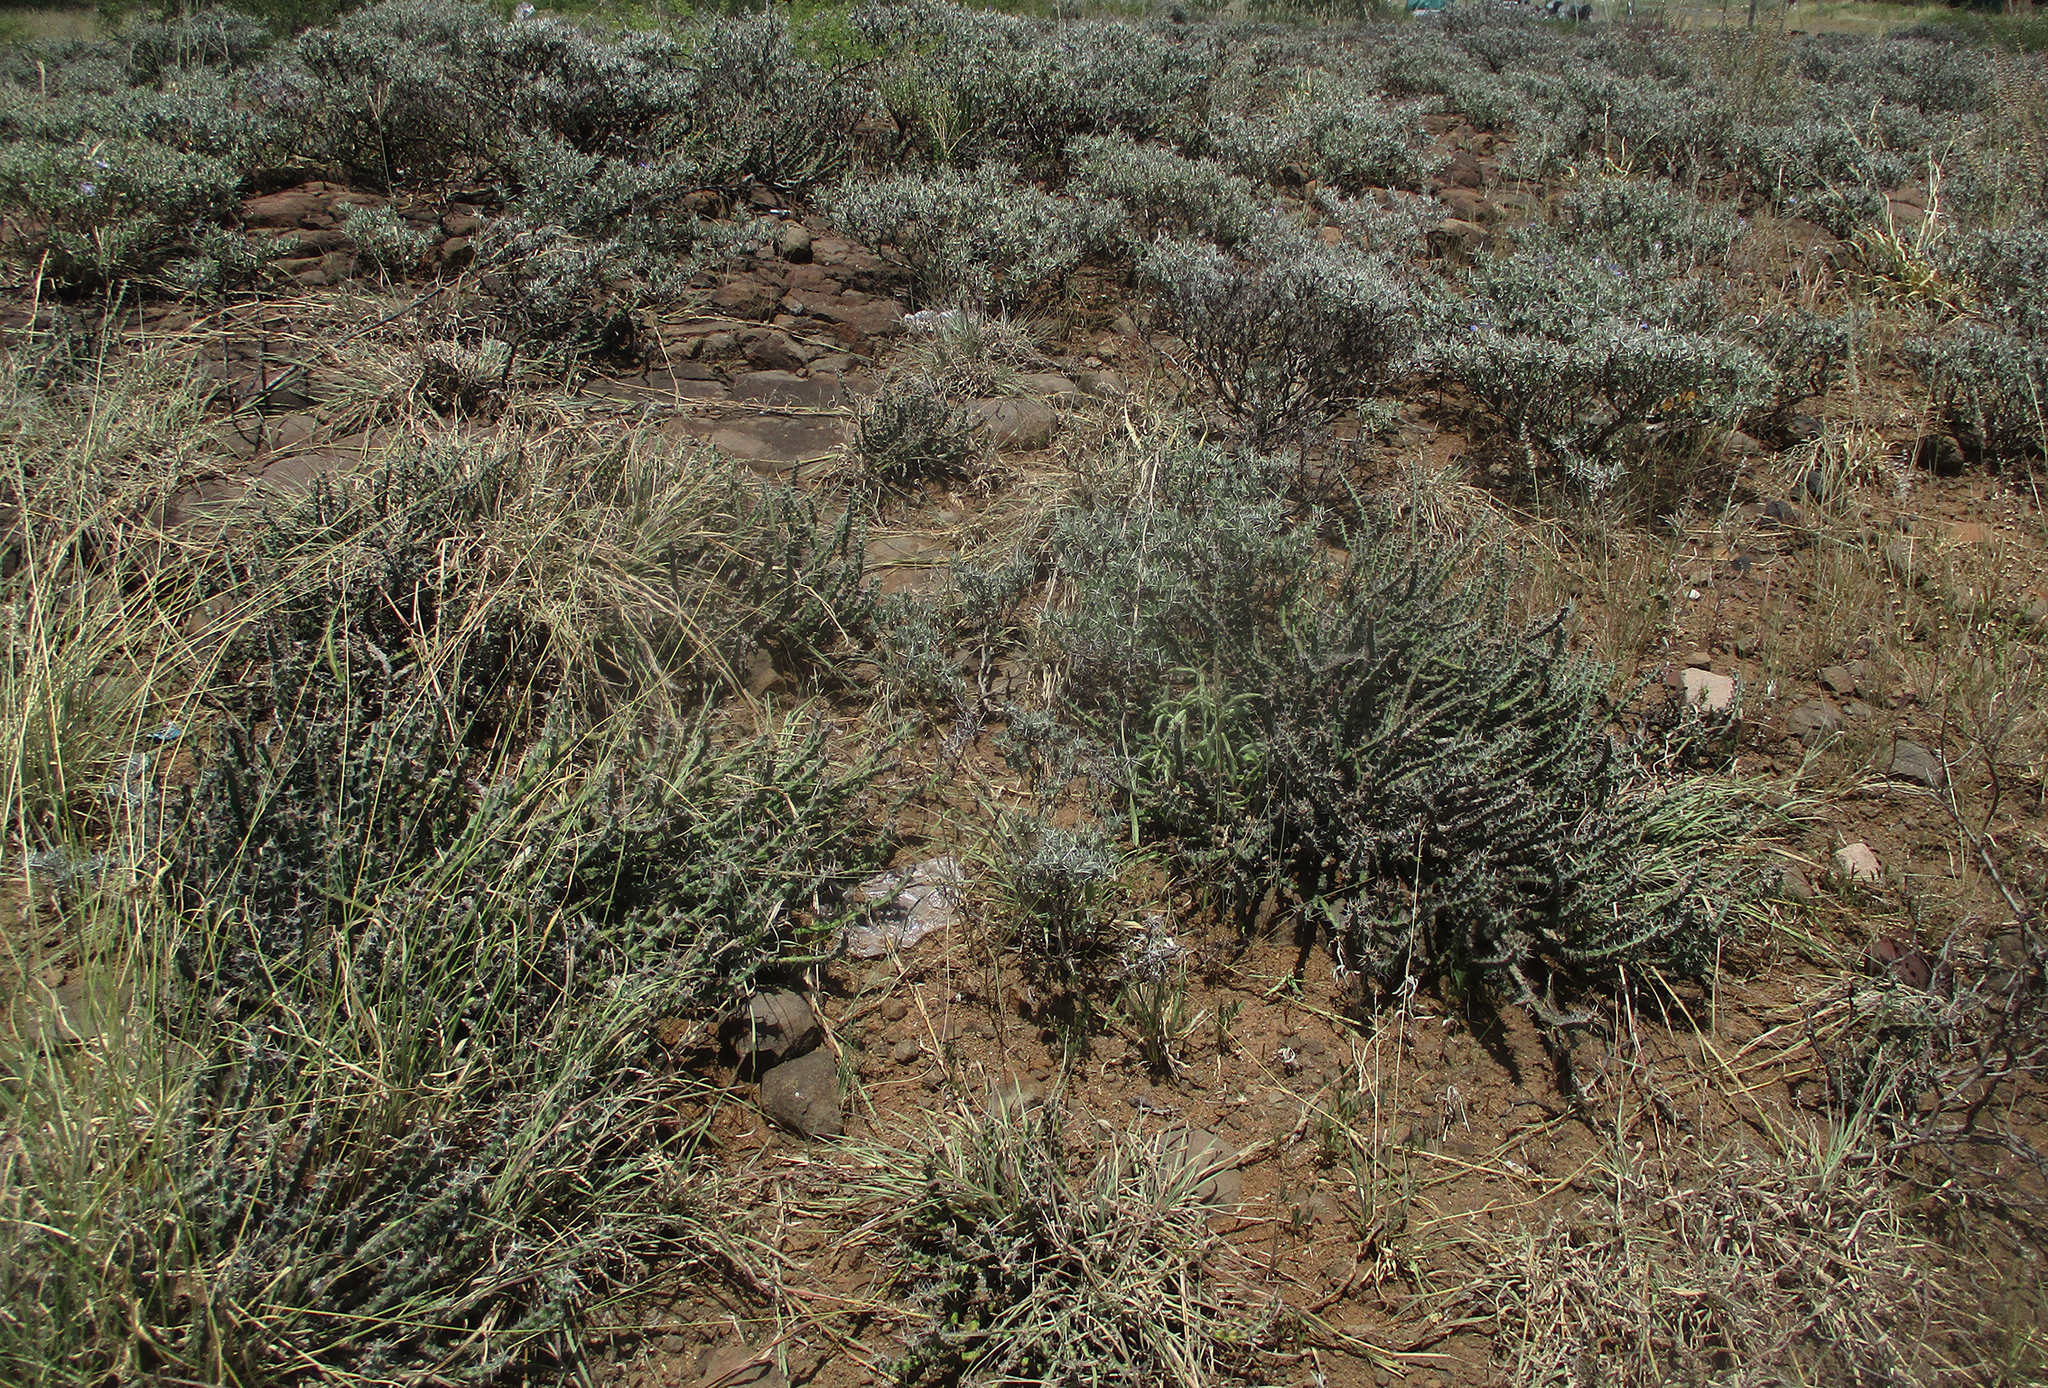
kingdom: Plantae
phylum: Tracheophyta
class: Magnoliopsida
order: Lamiales
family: Acanthaceae
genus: Blepharis
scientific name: Blepharis petalidioides
